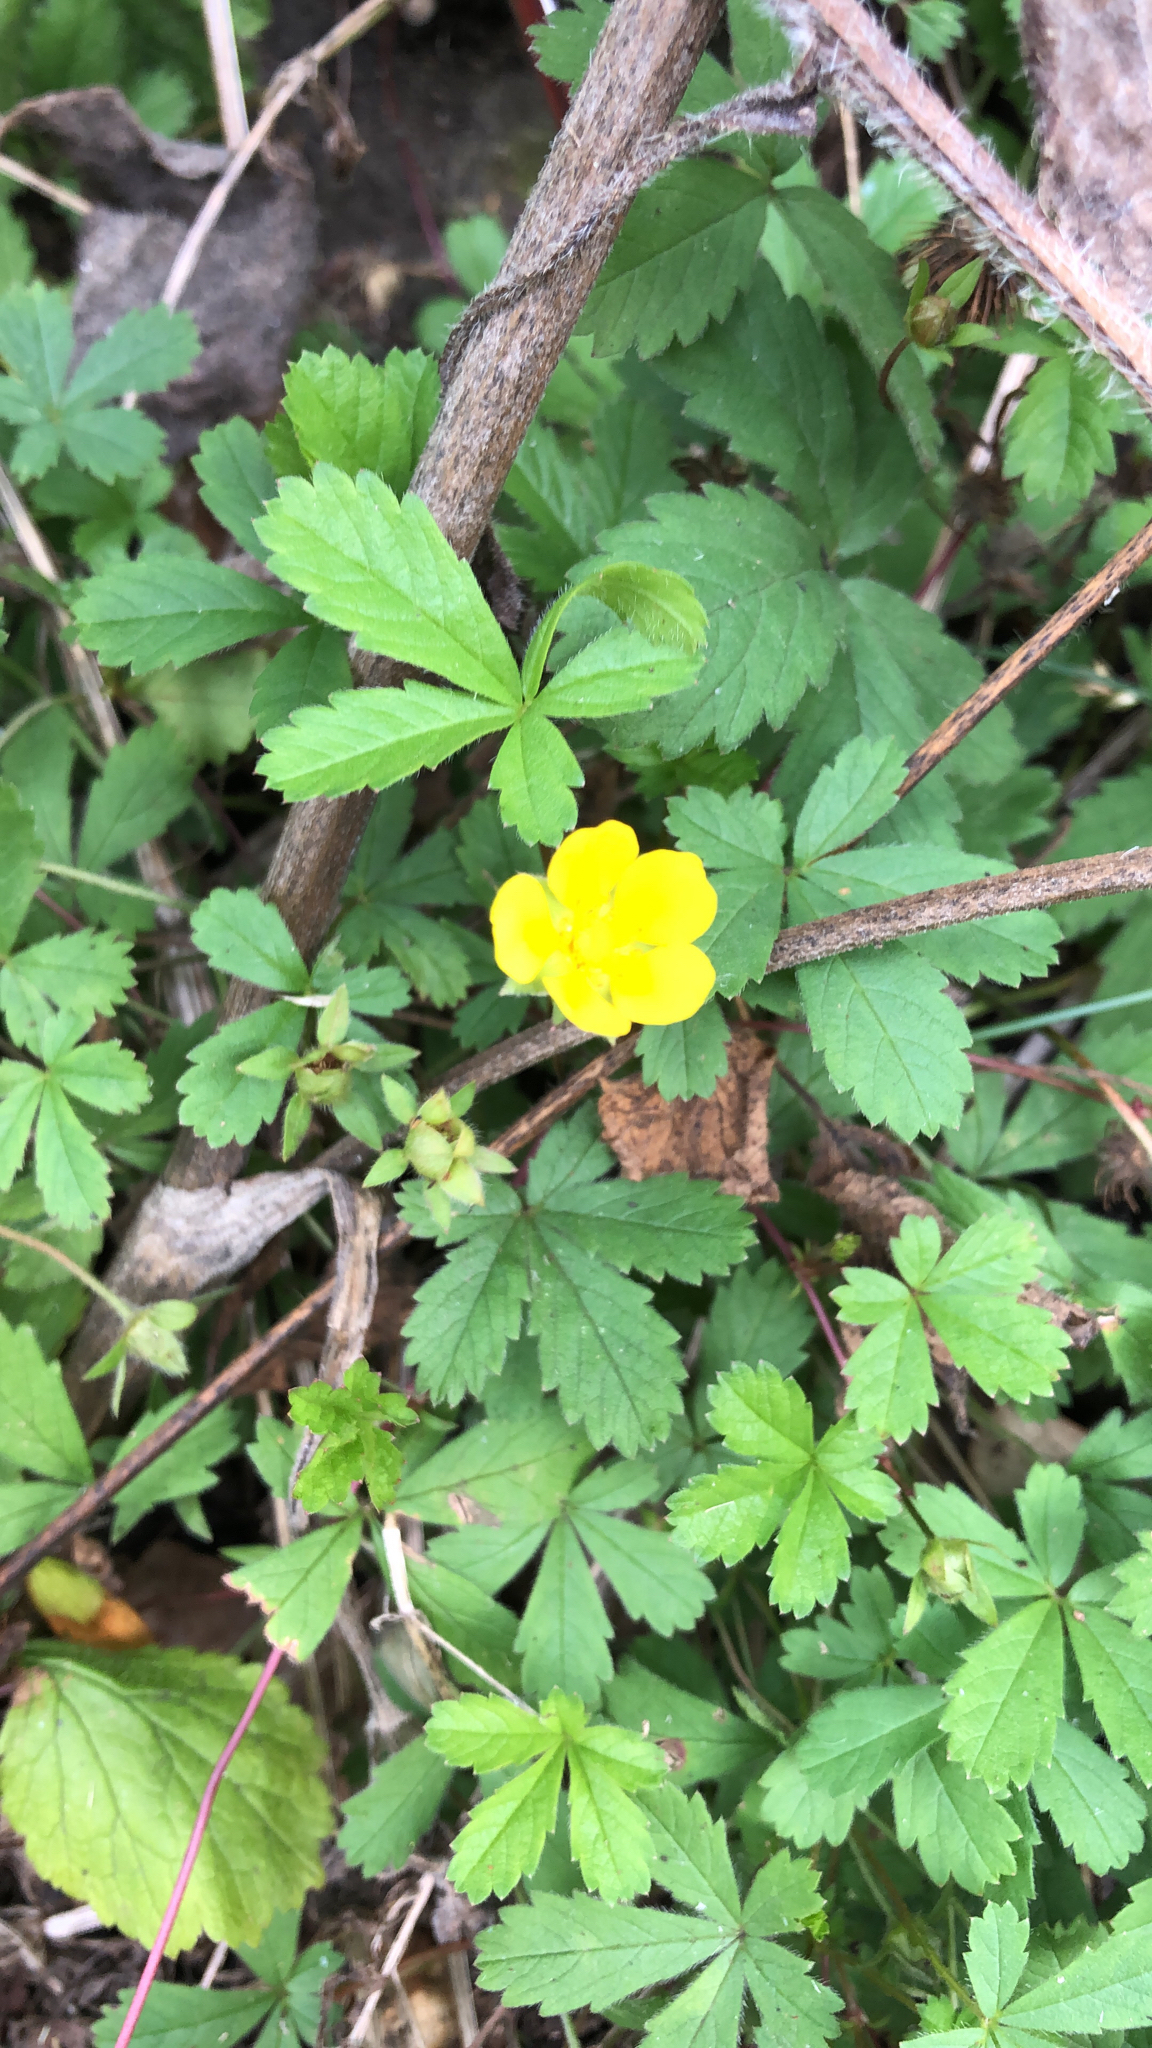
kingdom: Plantae
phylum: Tracheophyta
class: Magnoliopsida
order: Rosales
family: Rosaceae
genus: Potentilla
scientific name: Potentilla reptans
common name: Creeping cinquefoil
